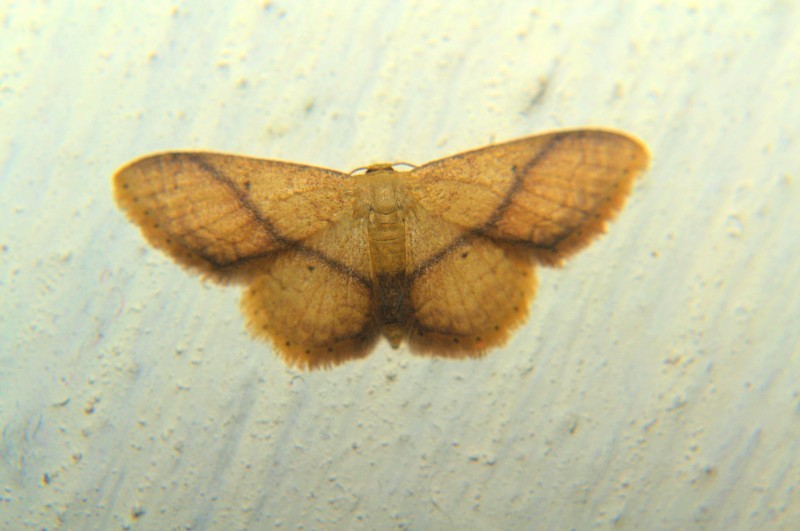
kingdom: Animalia
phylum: Arthropoda
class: Insecta
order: Lepidoptera
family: Geometridae
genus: Idaea
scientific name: Idaea obliquilinea
